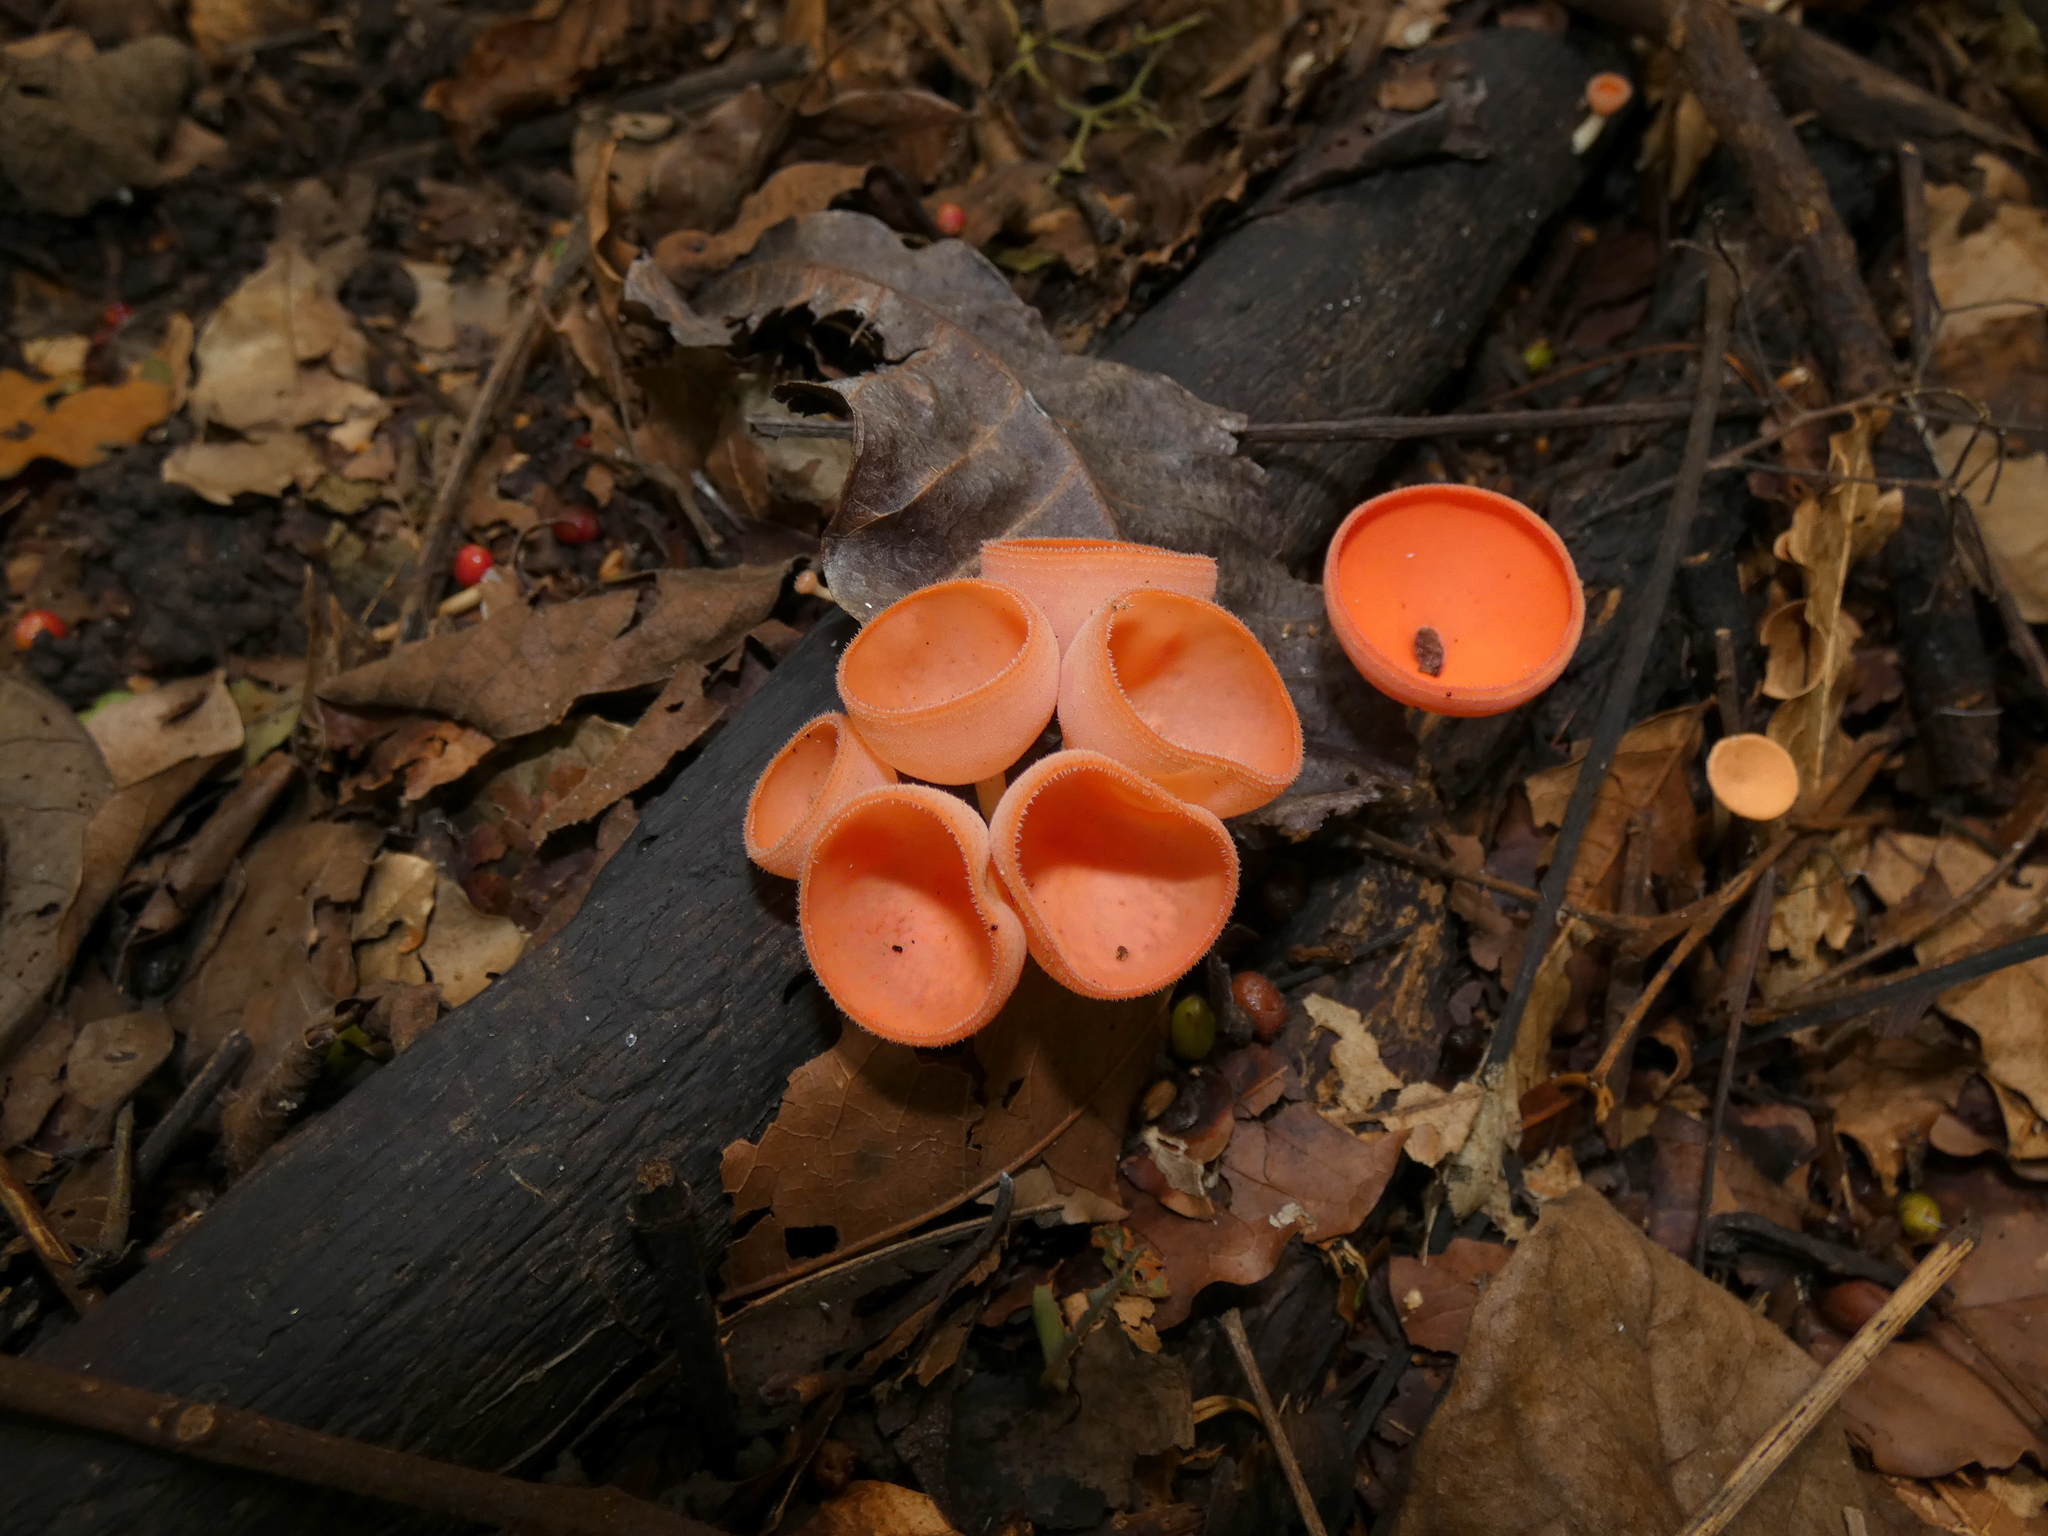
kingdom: Fungi
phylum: Ascomycota
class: Pezizomycetes
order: Pezizales
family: Sarcoscyphaceae
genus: Cookeina
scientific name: Cookeina speciosa
